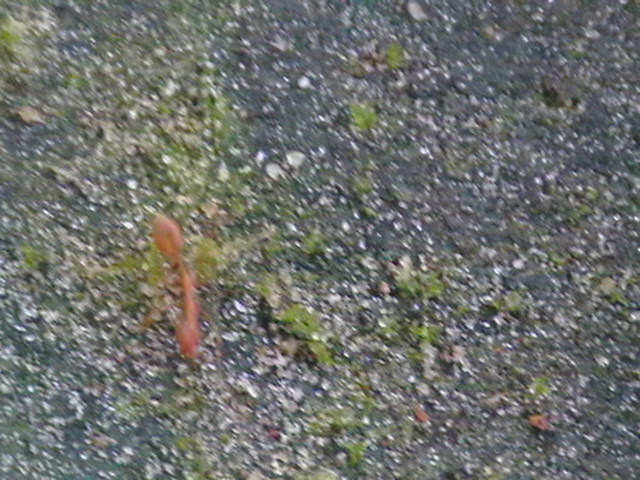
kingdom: Animalia
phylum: Arthropoda
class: Insecta
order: Hymenoptera
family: Formicidae
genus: Oecophylla
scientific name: Oecophylla smaragdina
